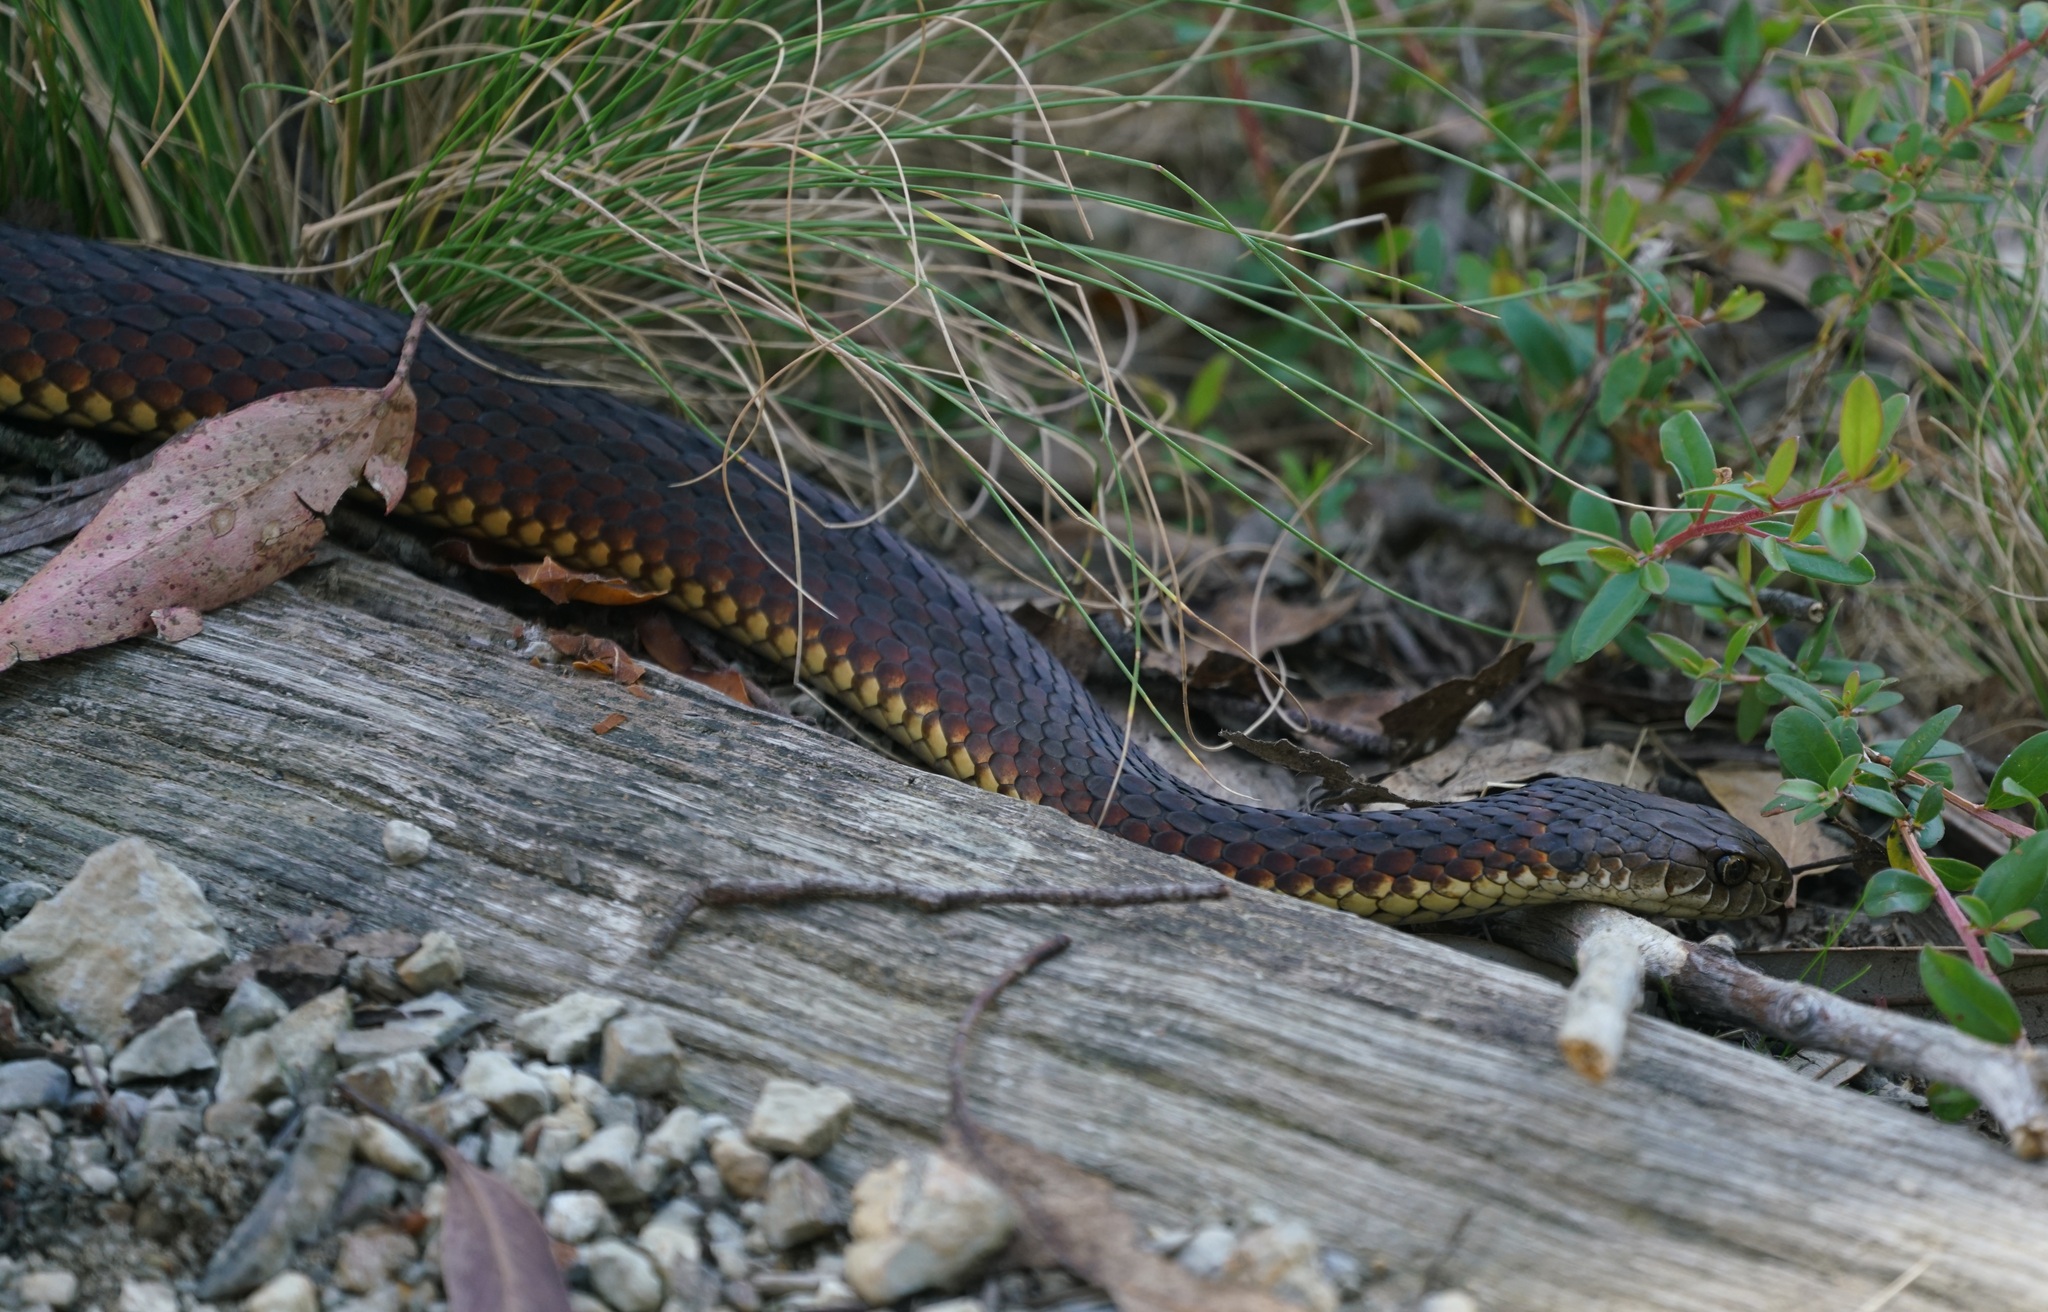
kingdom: Animalia
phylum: Chordata
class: Squamata
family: Elapidae
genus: Austrelaps
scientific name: Austrelaps ramsayi
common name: Highlands copperhead
